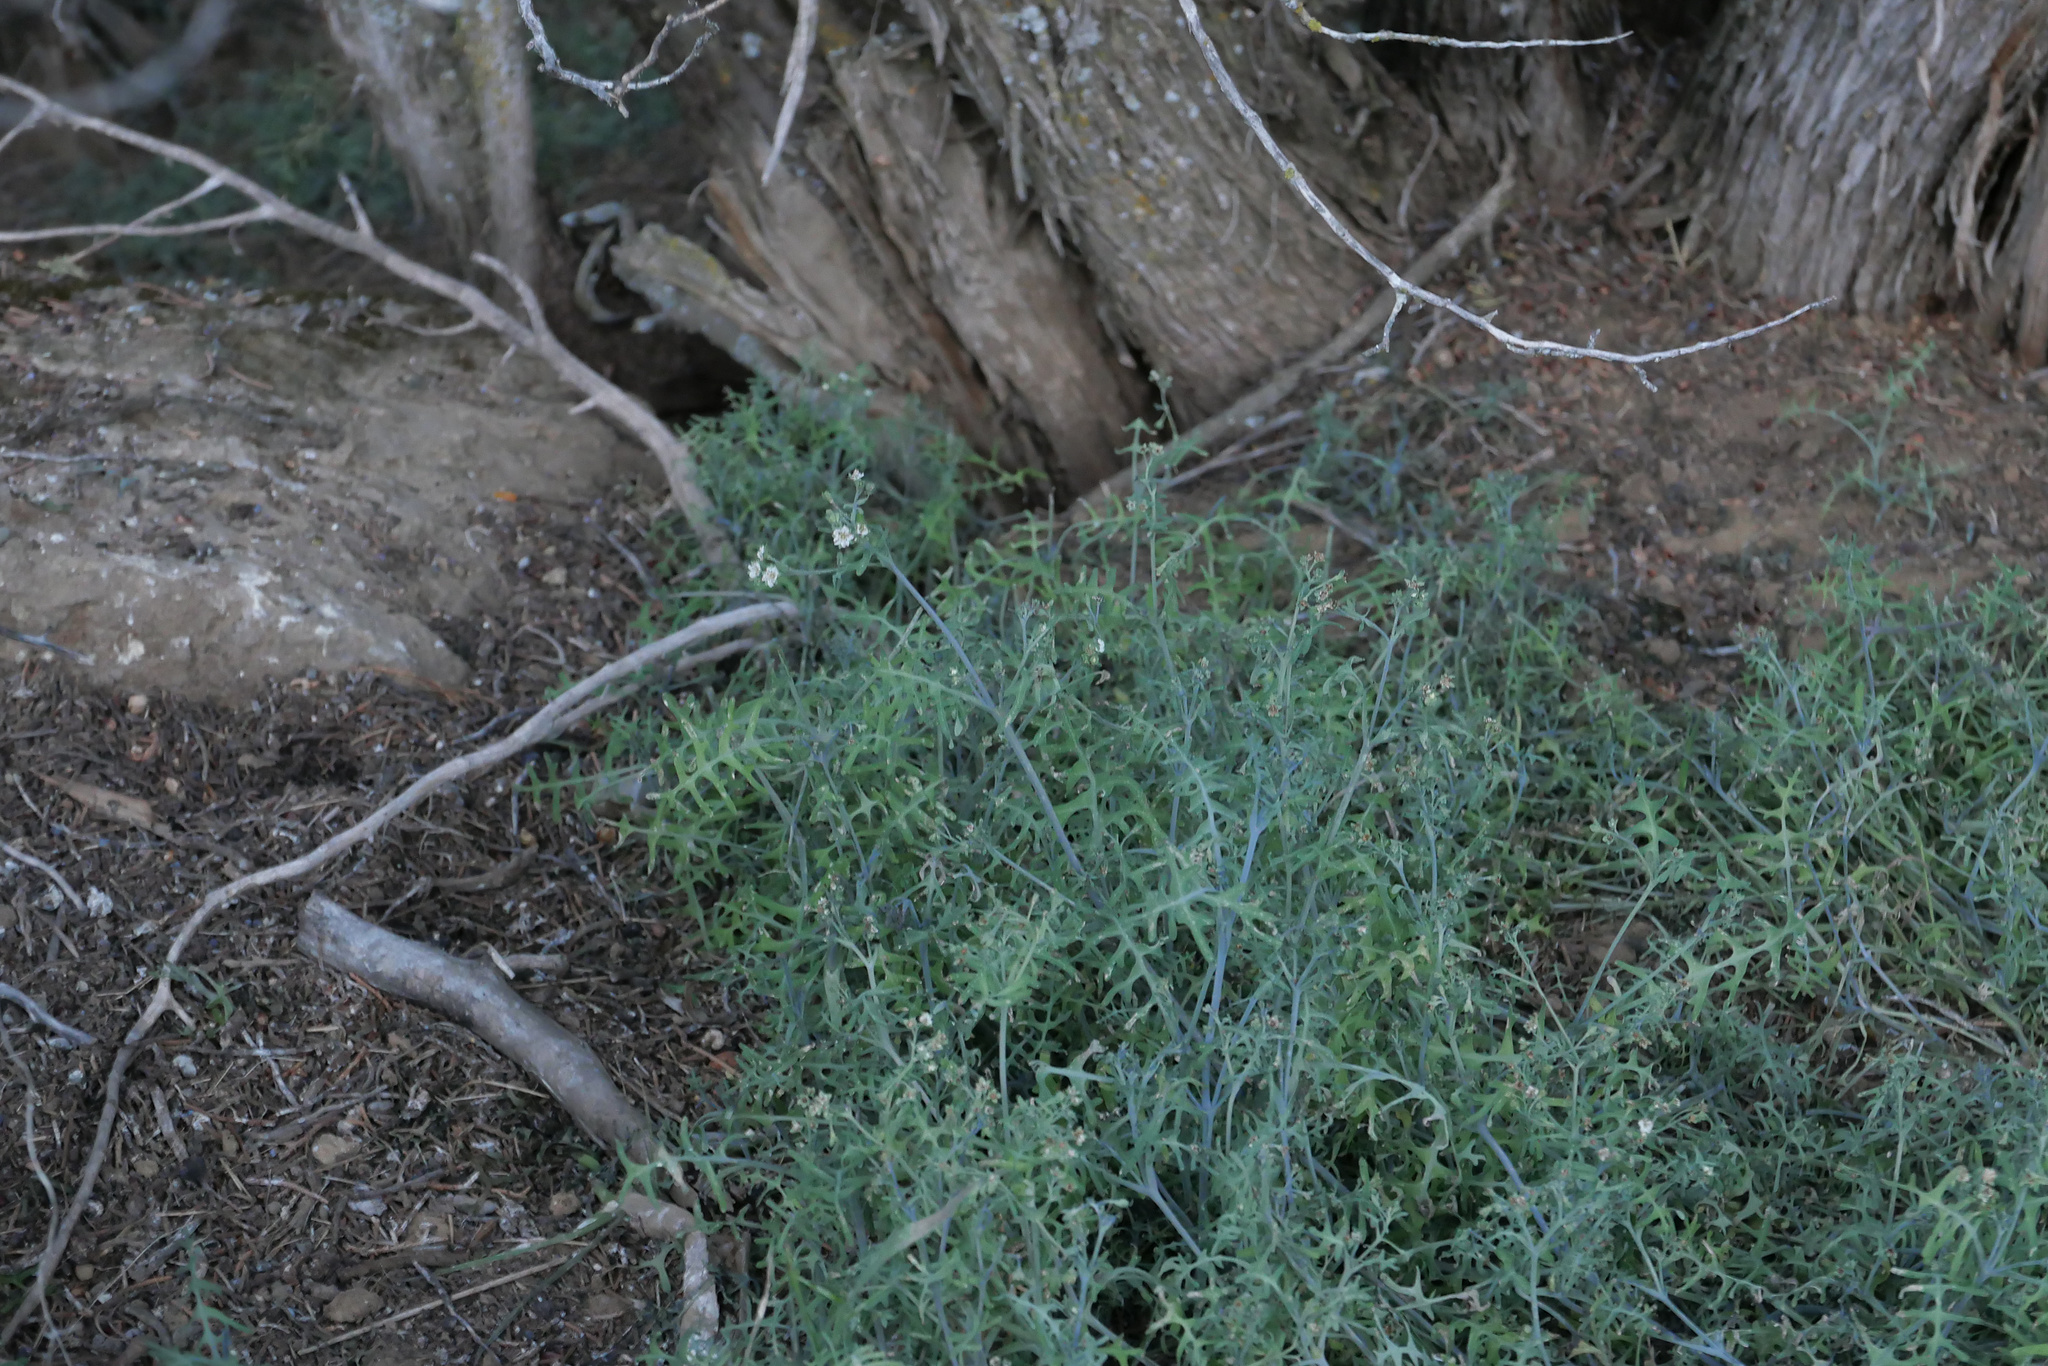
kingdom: Plantae
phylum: Tracheophyta
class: Magnoliopsida
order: Boraginales
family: Hydrophyllaceae
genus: Pholistoma
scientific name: Pholistoma membranaceum
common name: White fiesta-flower
